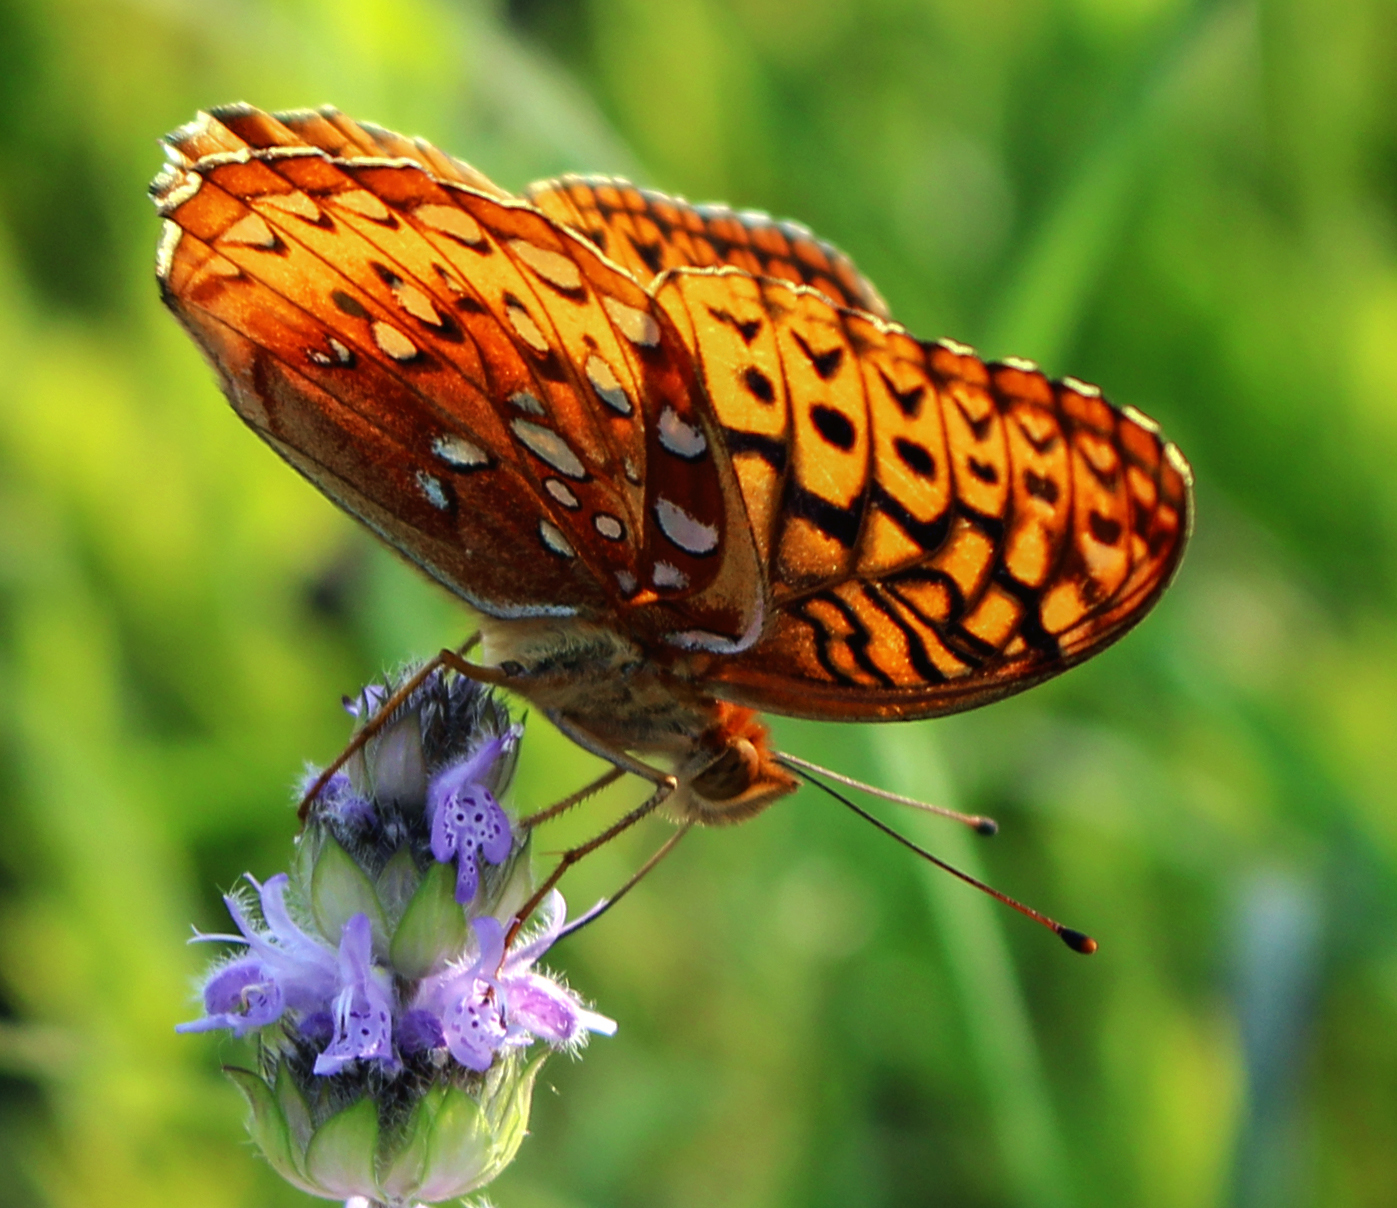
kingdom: Animalia
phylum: Arthropoda
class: Insecta
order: Lepidoptera
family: Nymphalidae
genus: Speyeria
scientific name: Speyeria cybele
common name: Great spangled fritillary
